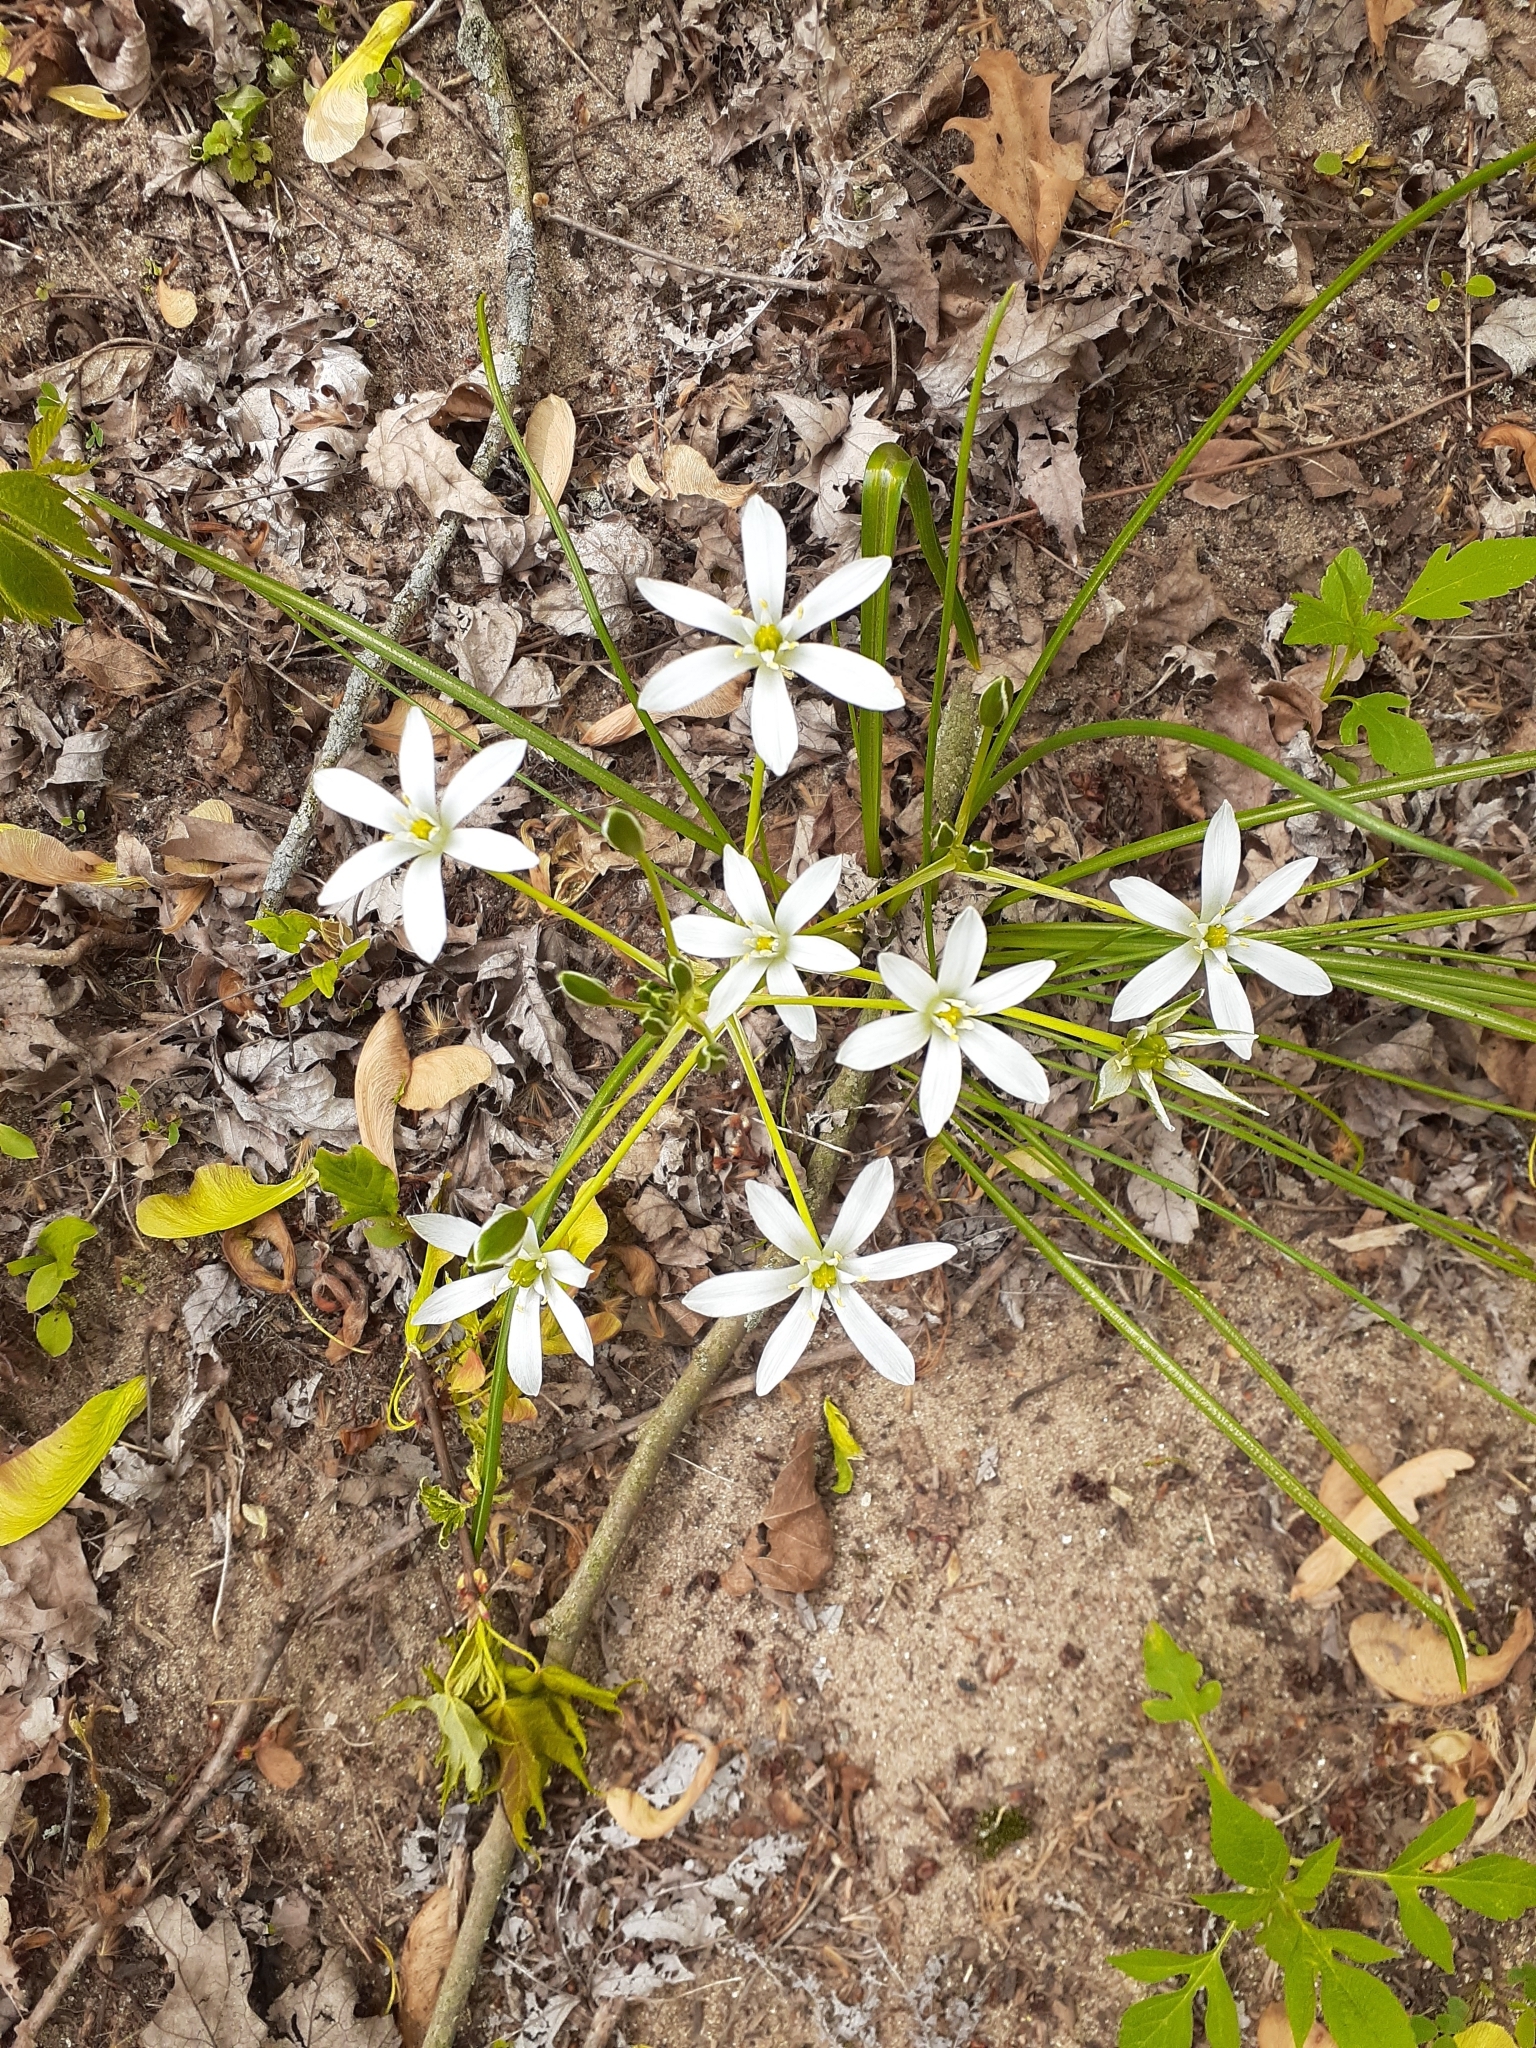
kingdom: Plantae
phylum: Tracheophyta
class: Liliopsida
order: Asparagales
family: Asparagaceae
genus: Ornithogalum
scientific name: Ornithogalum umbellatum
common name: Garden star-of-bethlehem
